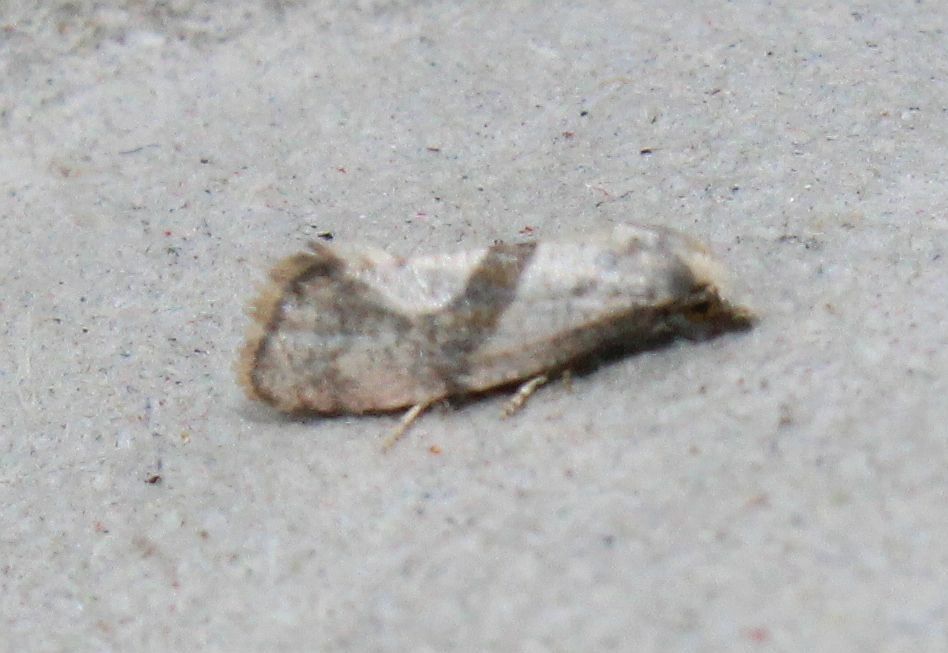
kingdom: Animalia
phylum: Arthropoda
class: Insecta
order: Lepidoptera
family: Tortricidae
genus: Cochylidia
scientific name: Cochylidia implicitana
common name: Chamomile conch
